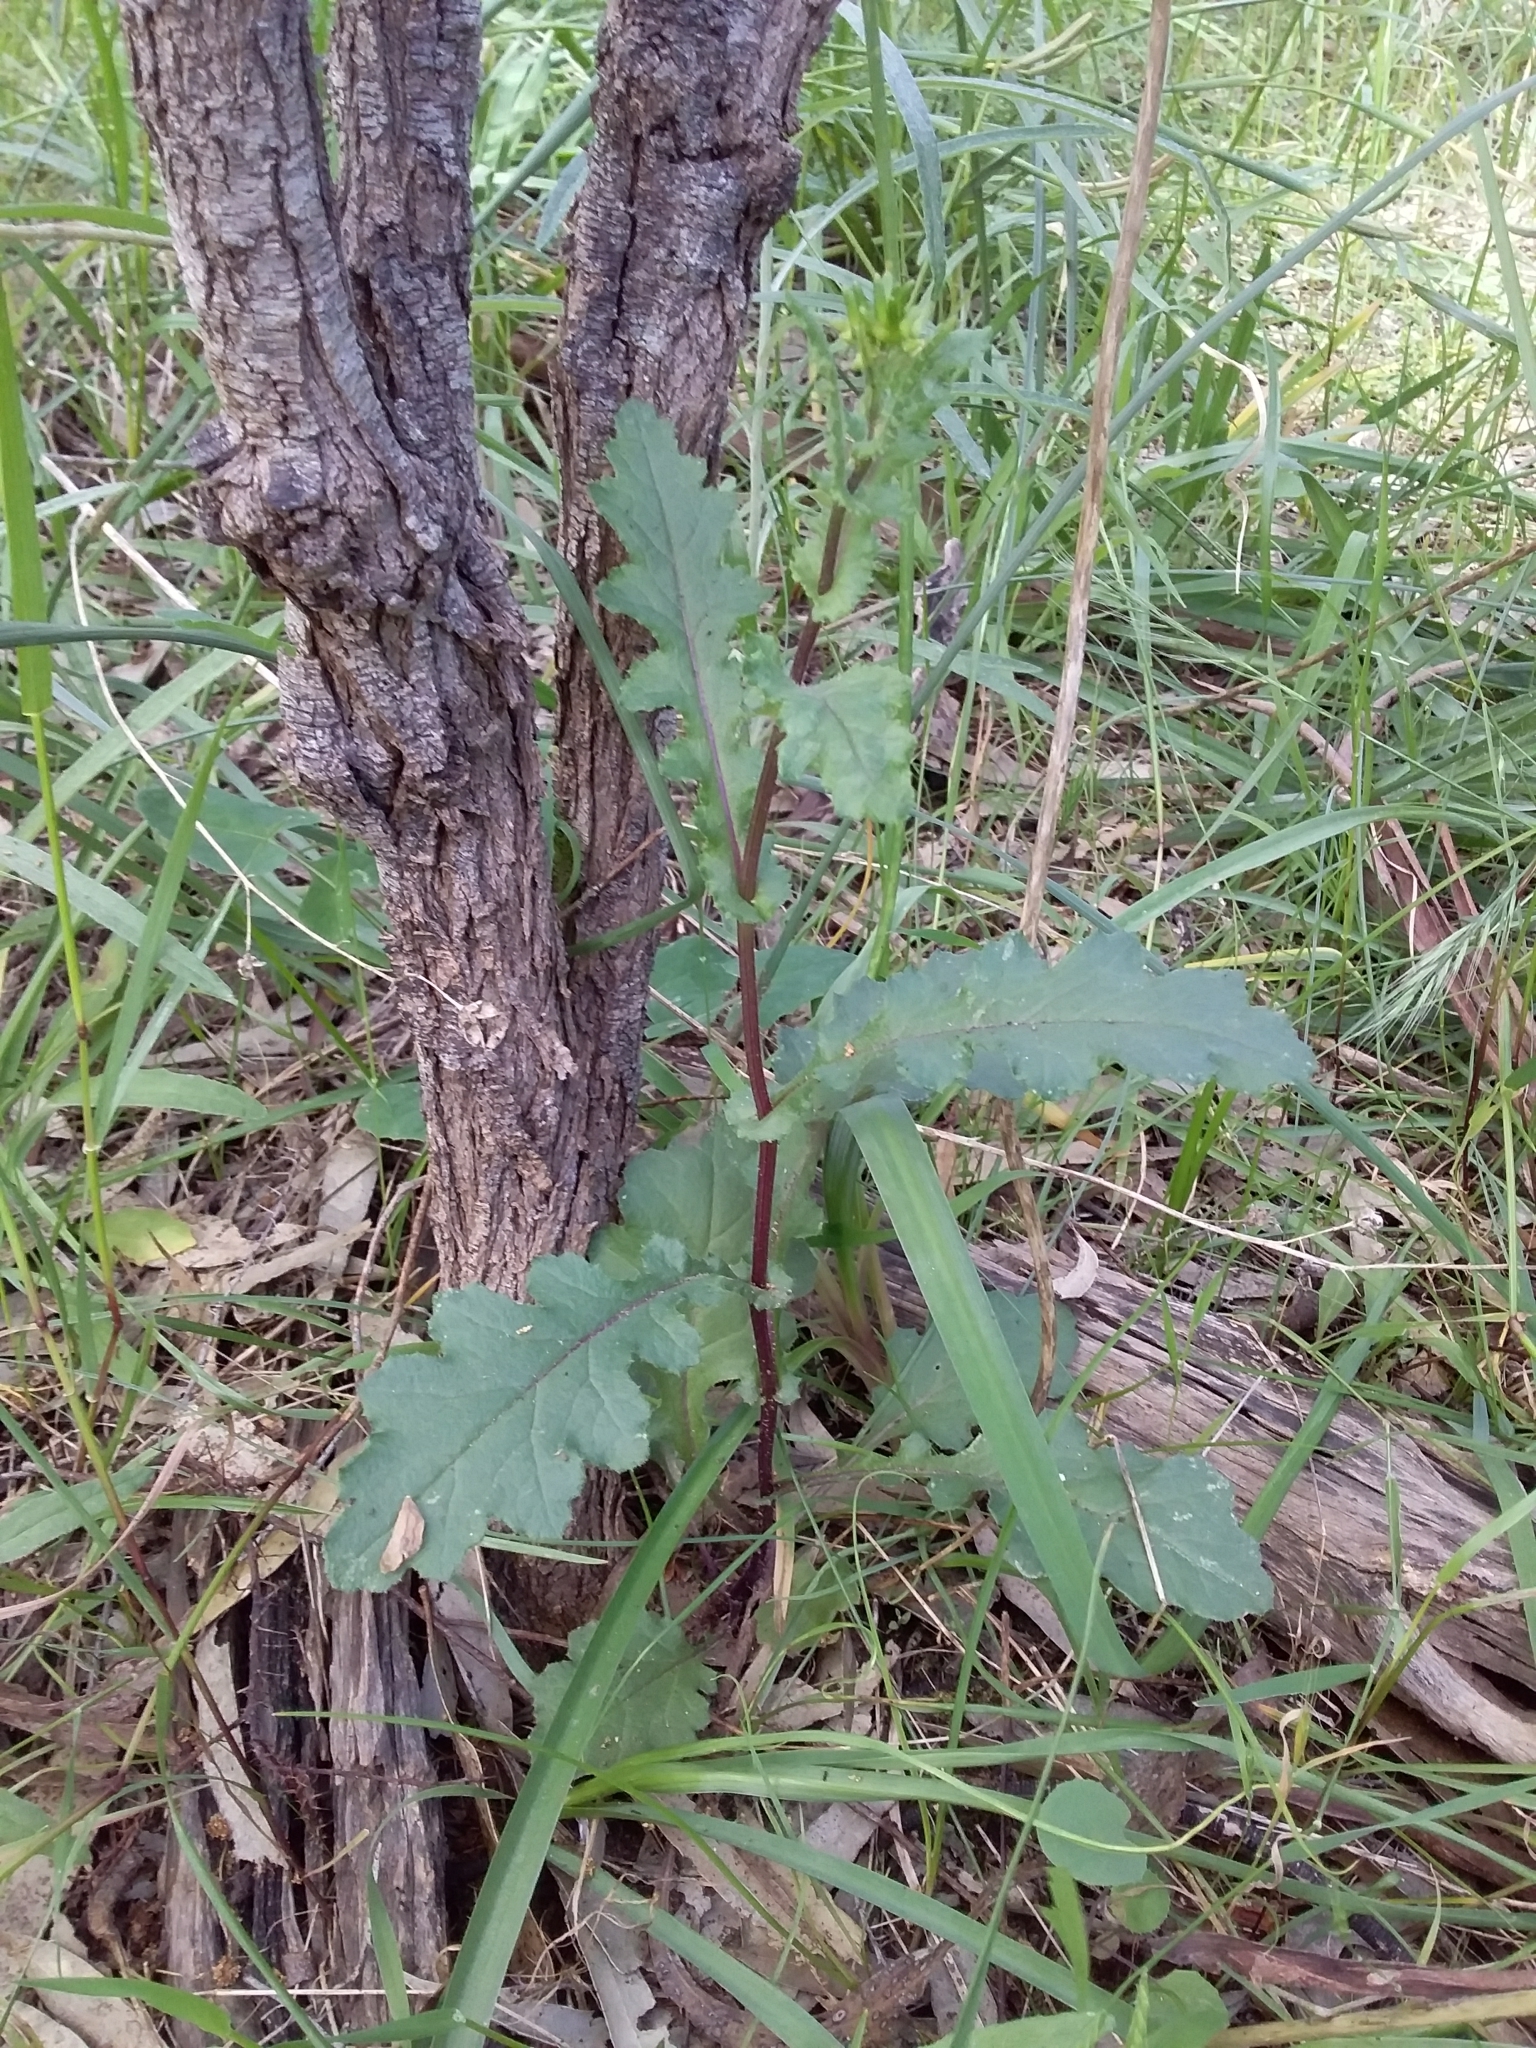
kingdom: Plantae
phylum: Tracheophyta
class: Magnoliopsida
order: Asterales
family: Asteraceae
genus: Senecio
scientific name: Senecio picridioides
